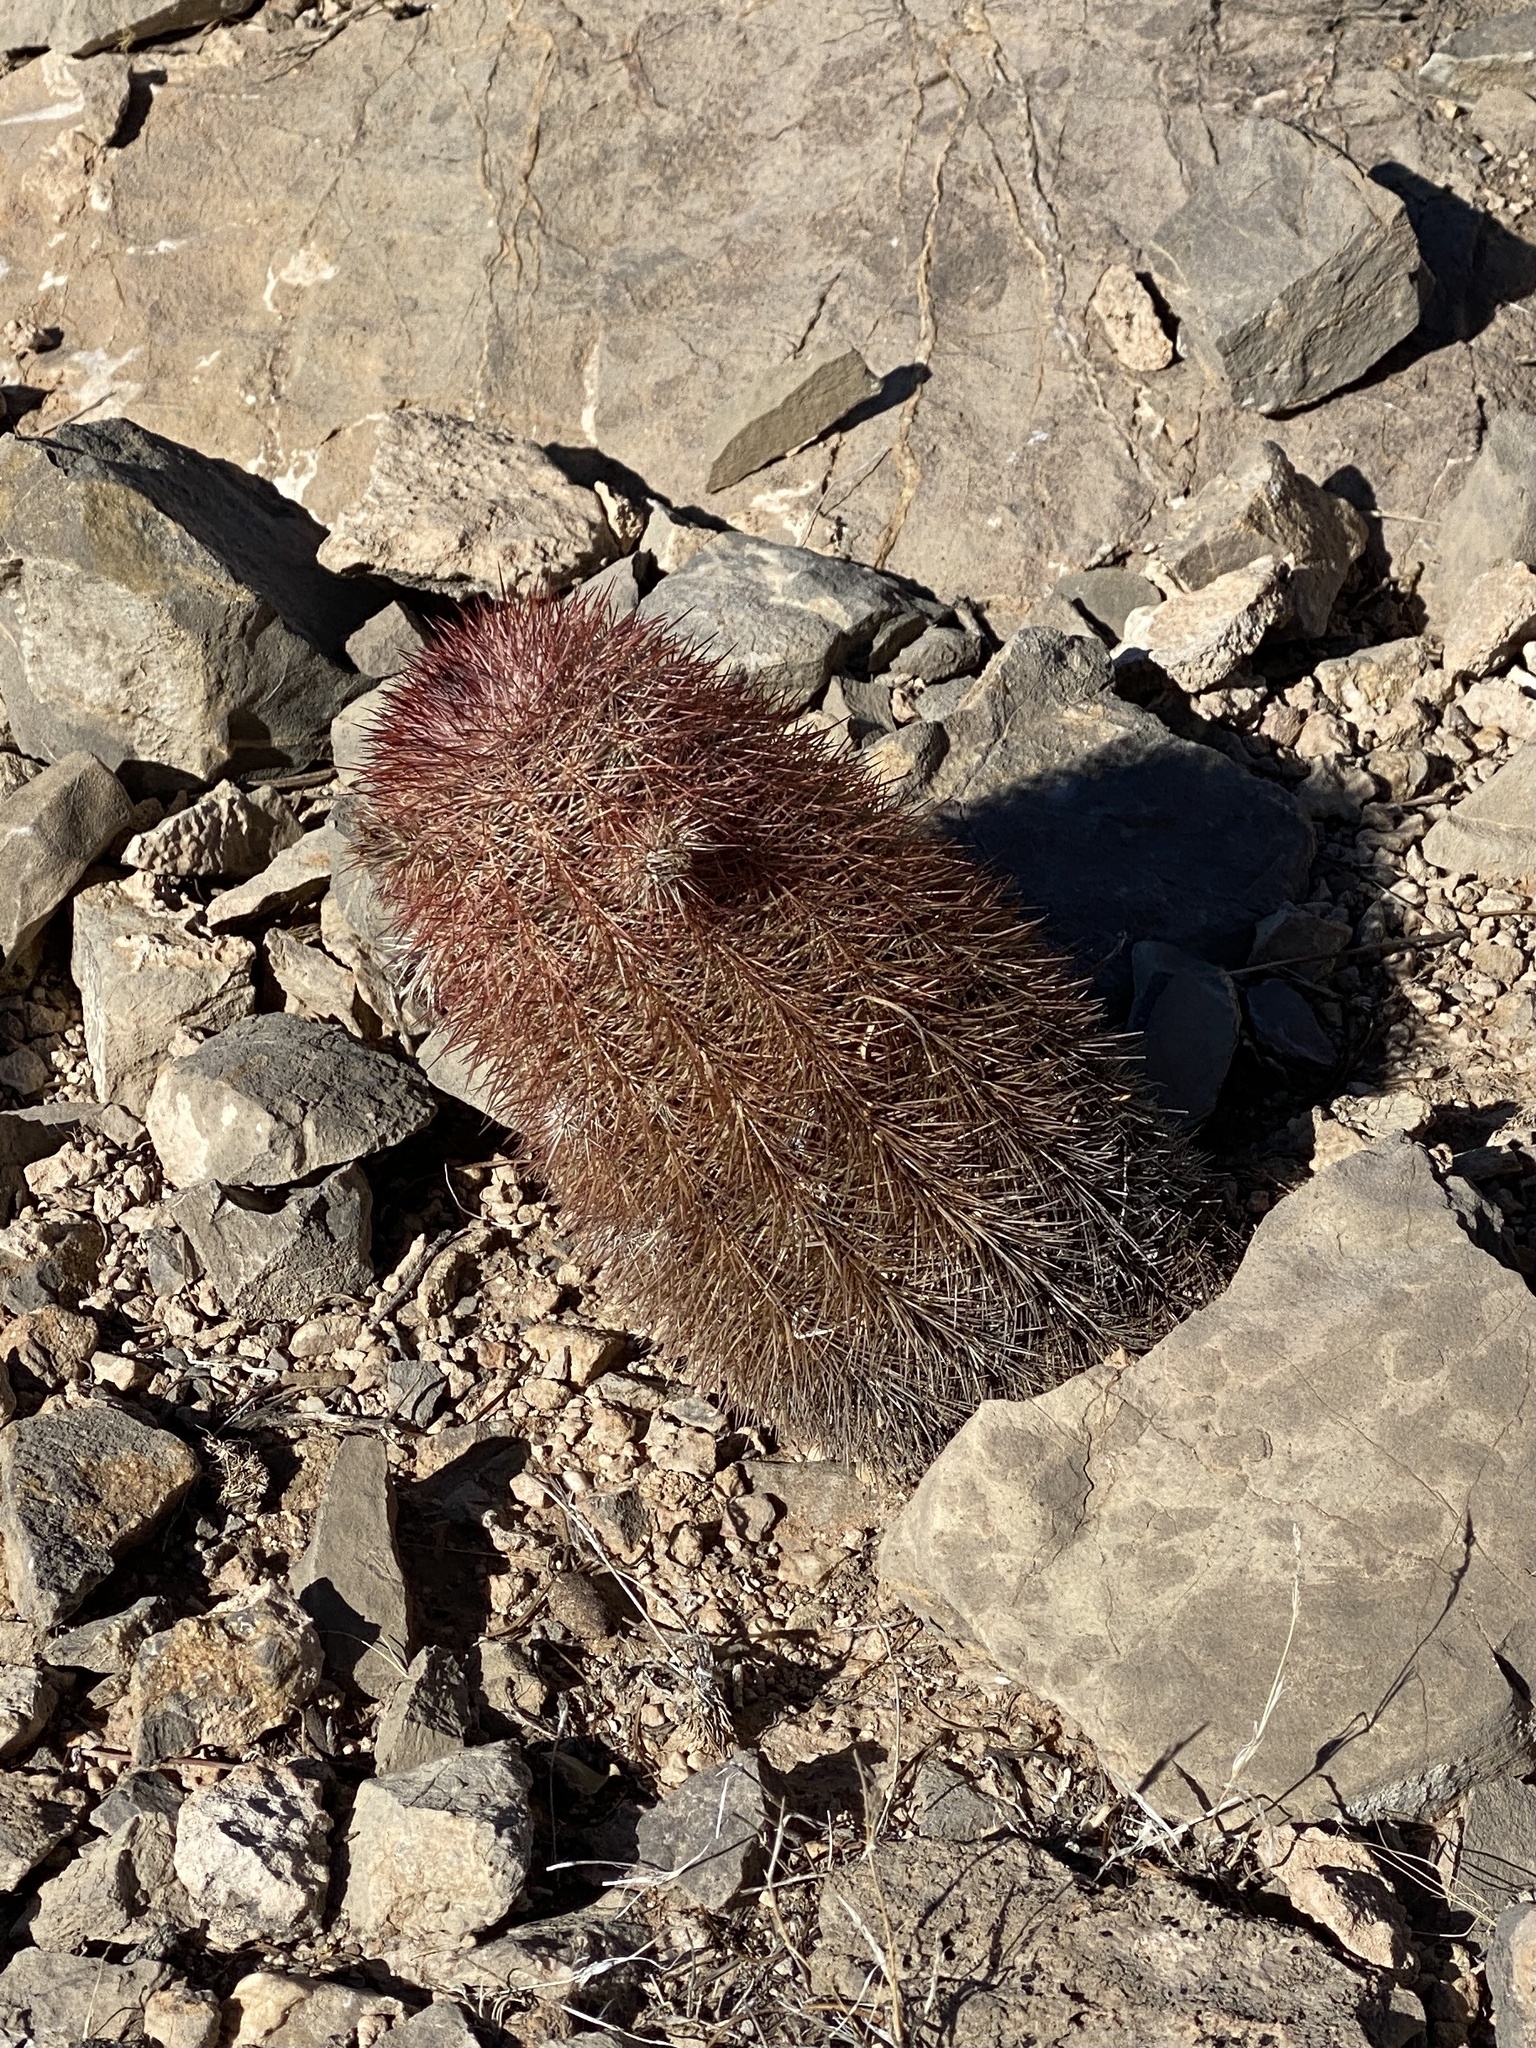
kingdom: Plantae
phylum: Tracheophyta
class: Magnoliopsida
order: Caryophyllales
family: Cactaceae
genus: Echinocereus
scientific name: Echinocereus dasyacanthus
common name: Spiny hedgehog cactus
